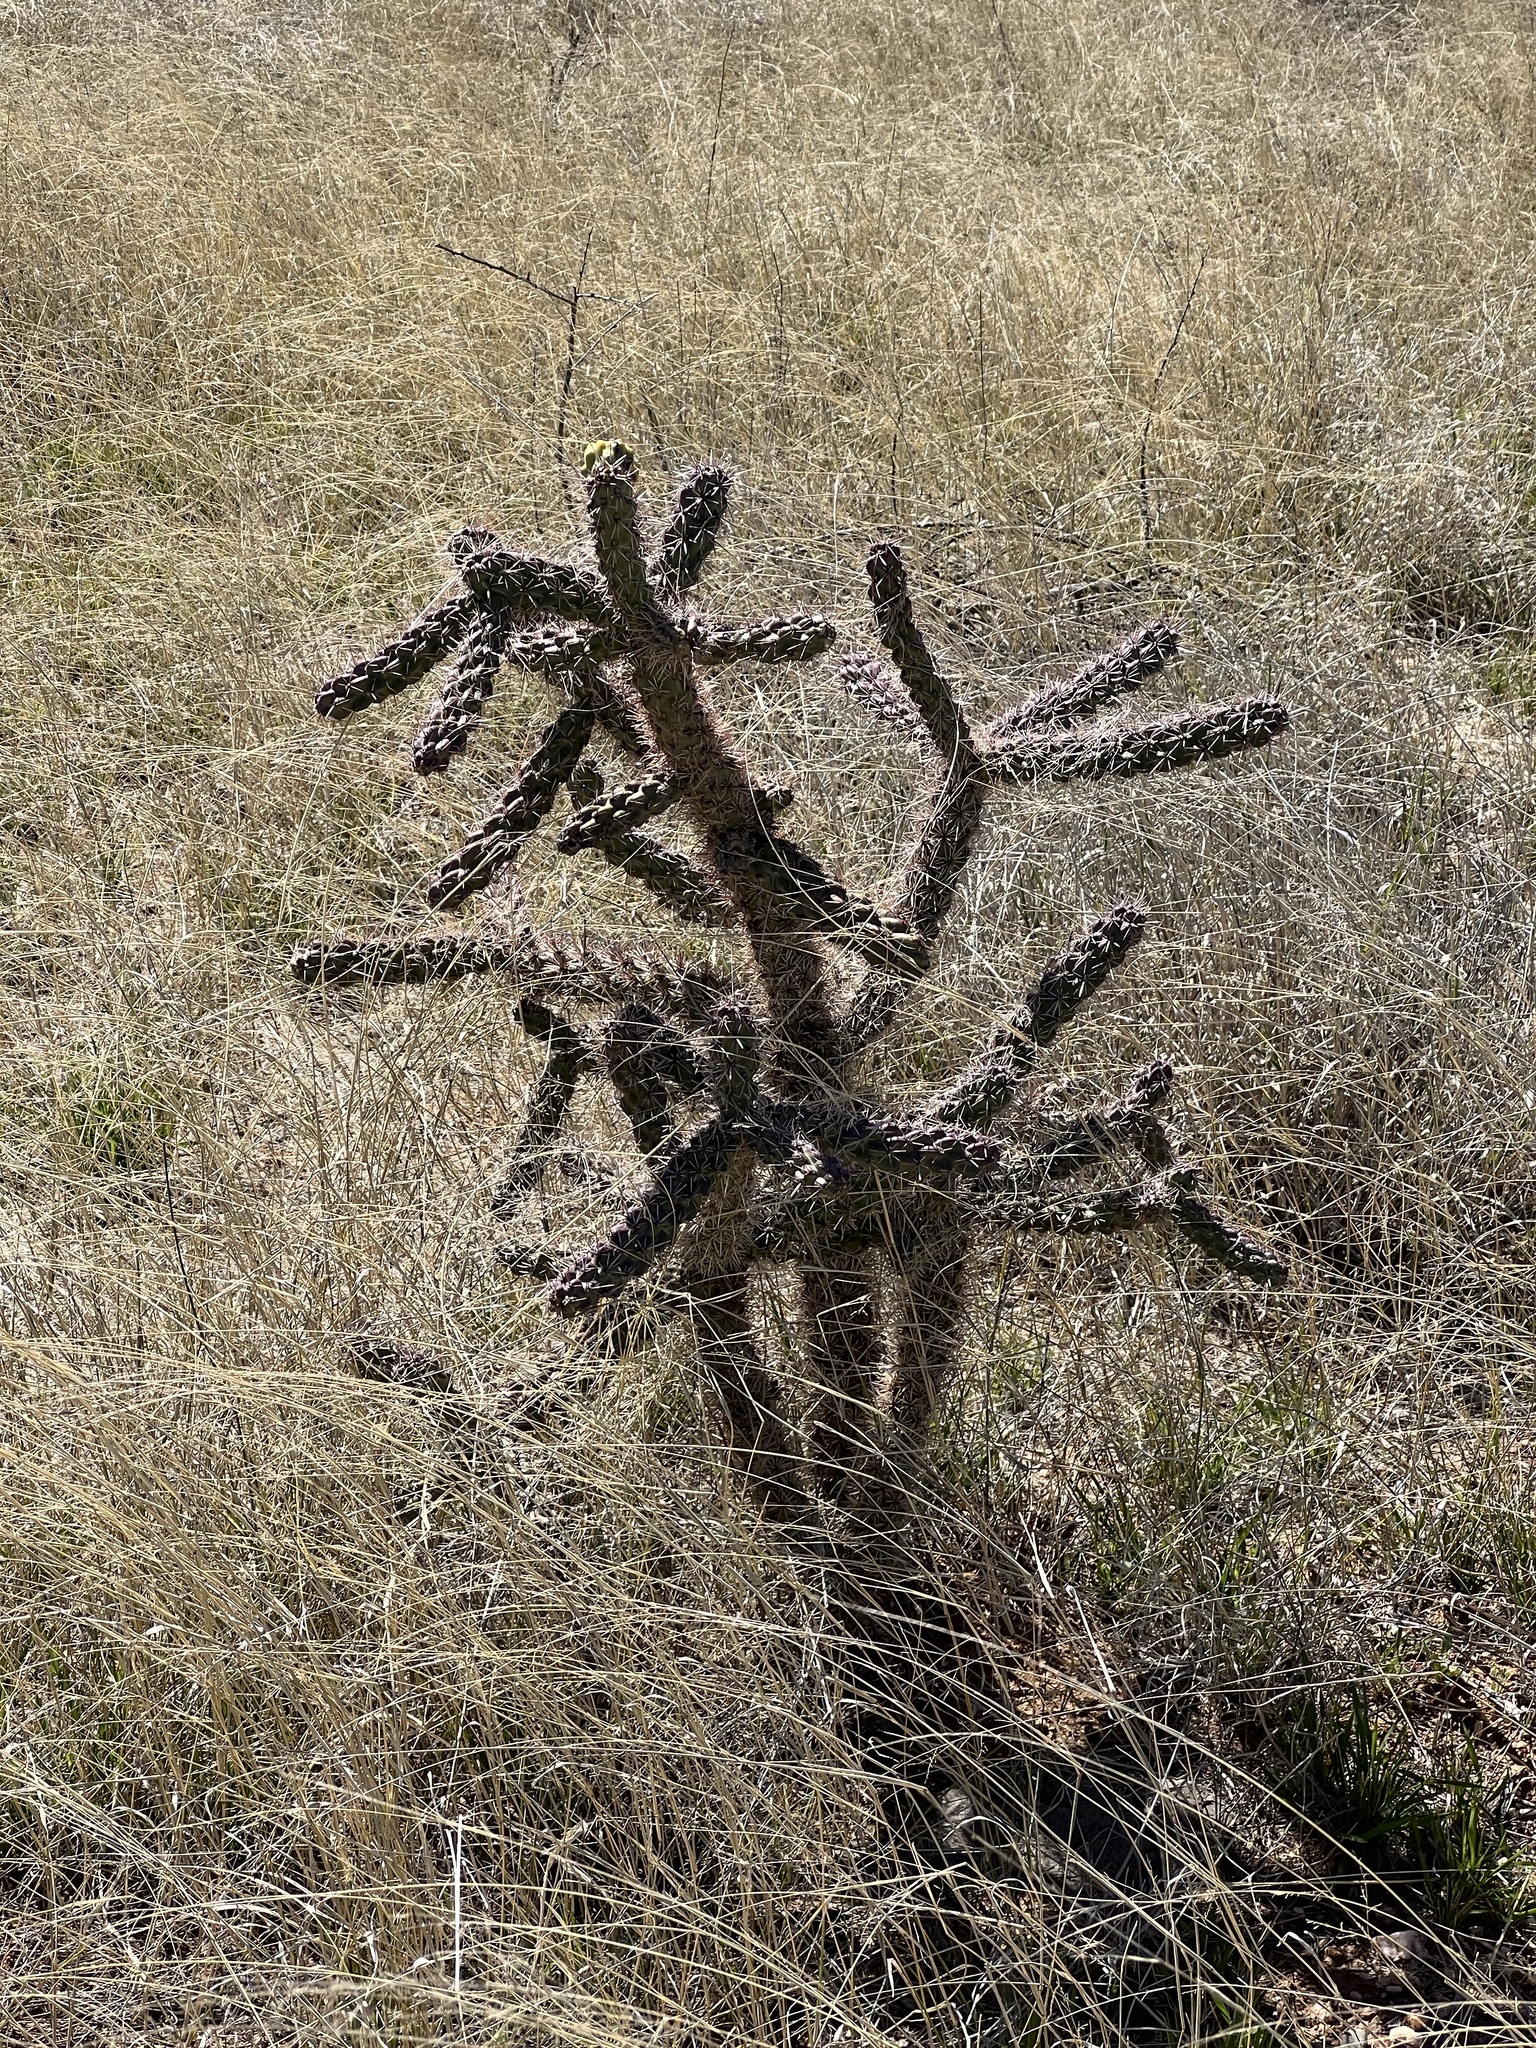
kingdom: Plantae
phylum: Tracheophyta
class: Magnoliopsida
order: Caryophyllales
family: Cactaceae
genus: Cylindropuntia
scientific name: Cylindropuntia imbricata
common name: Candelabrum cactus
